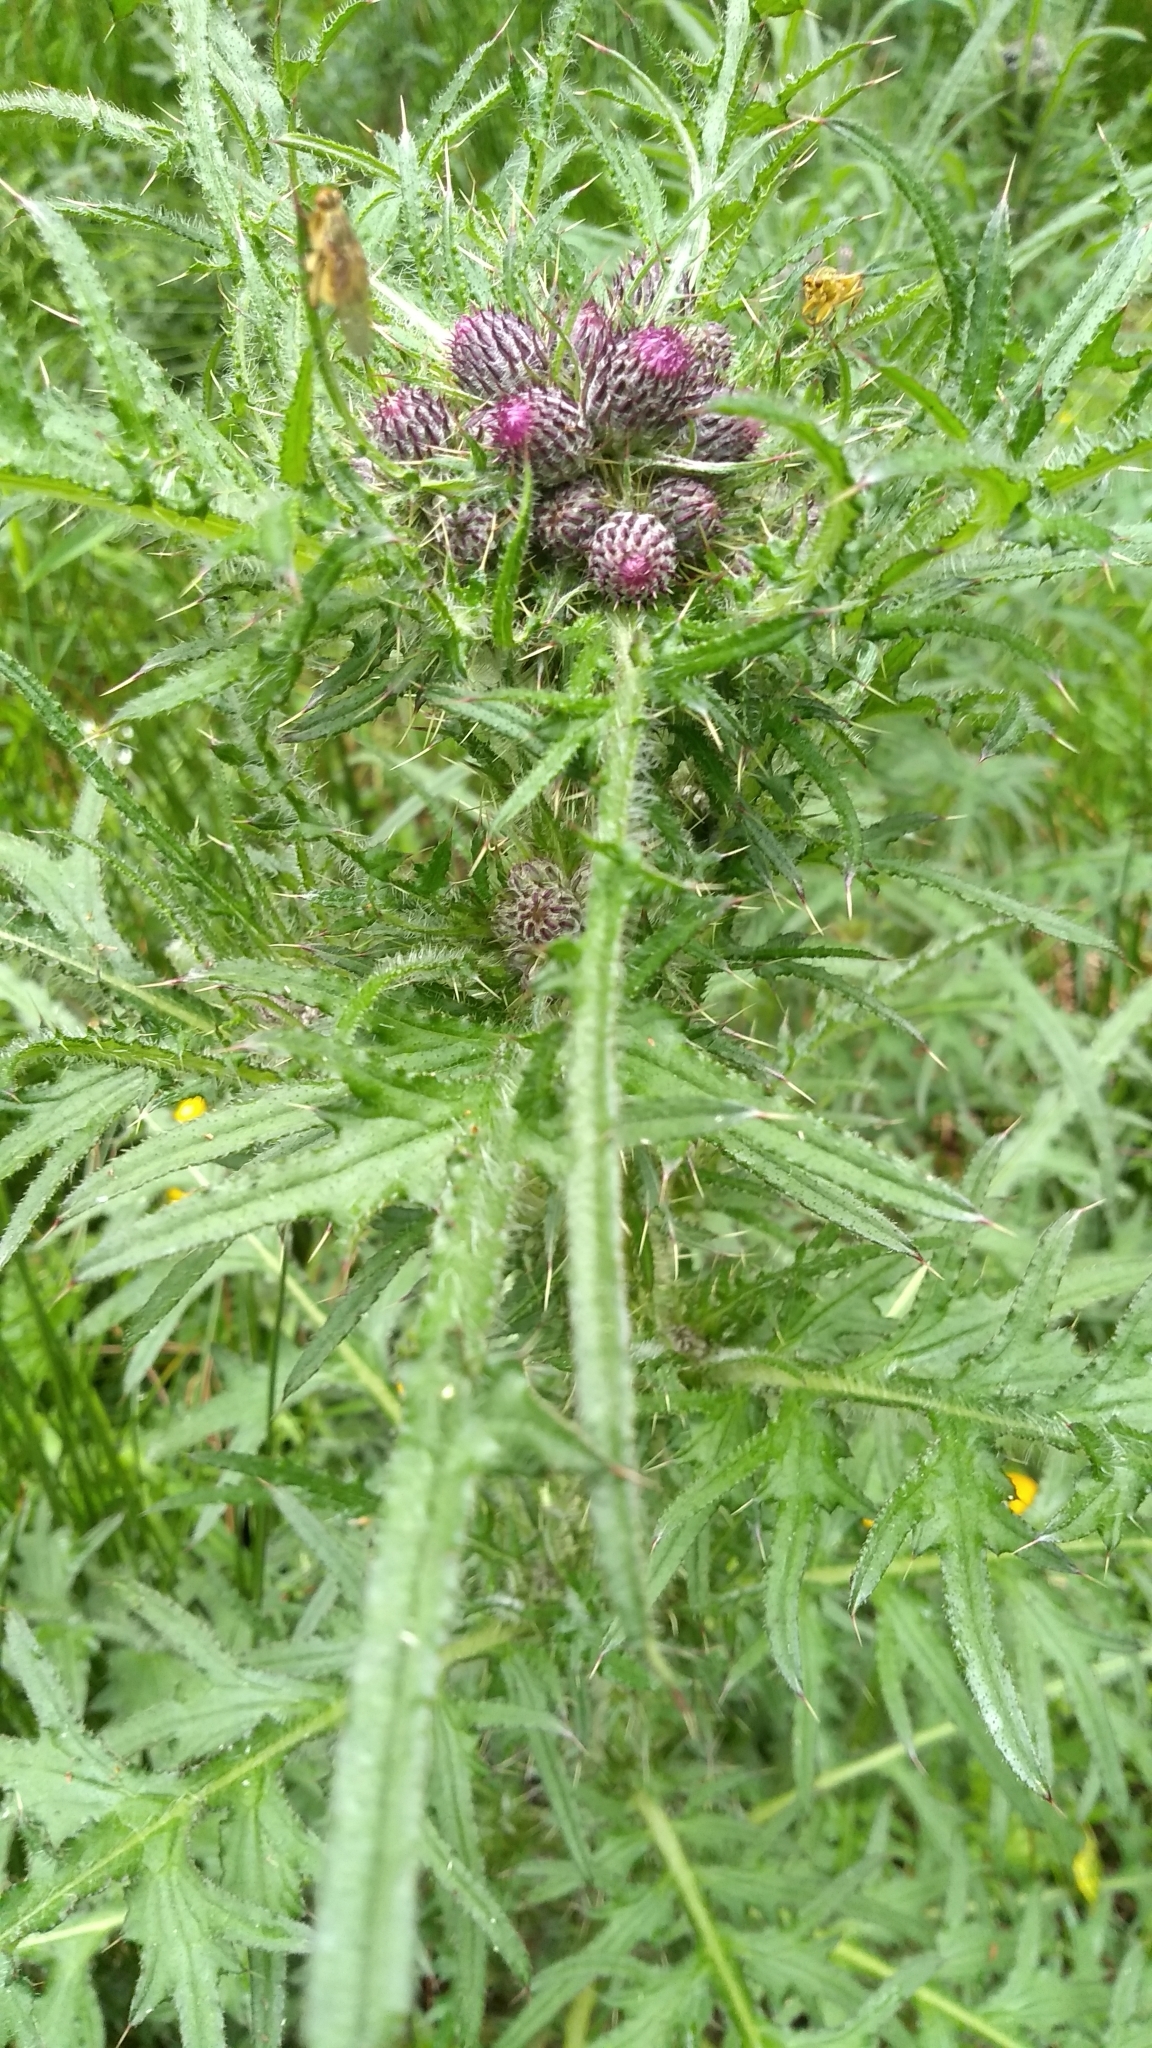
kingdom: Plantae
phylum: Tracheophyta
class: Magnoliopsida
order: Asterales
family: Asteraceae
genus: Cirsium
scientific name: Cirsium palustre
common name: Marsh thistle
